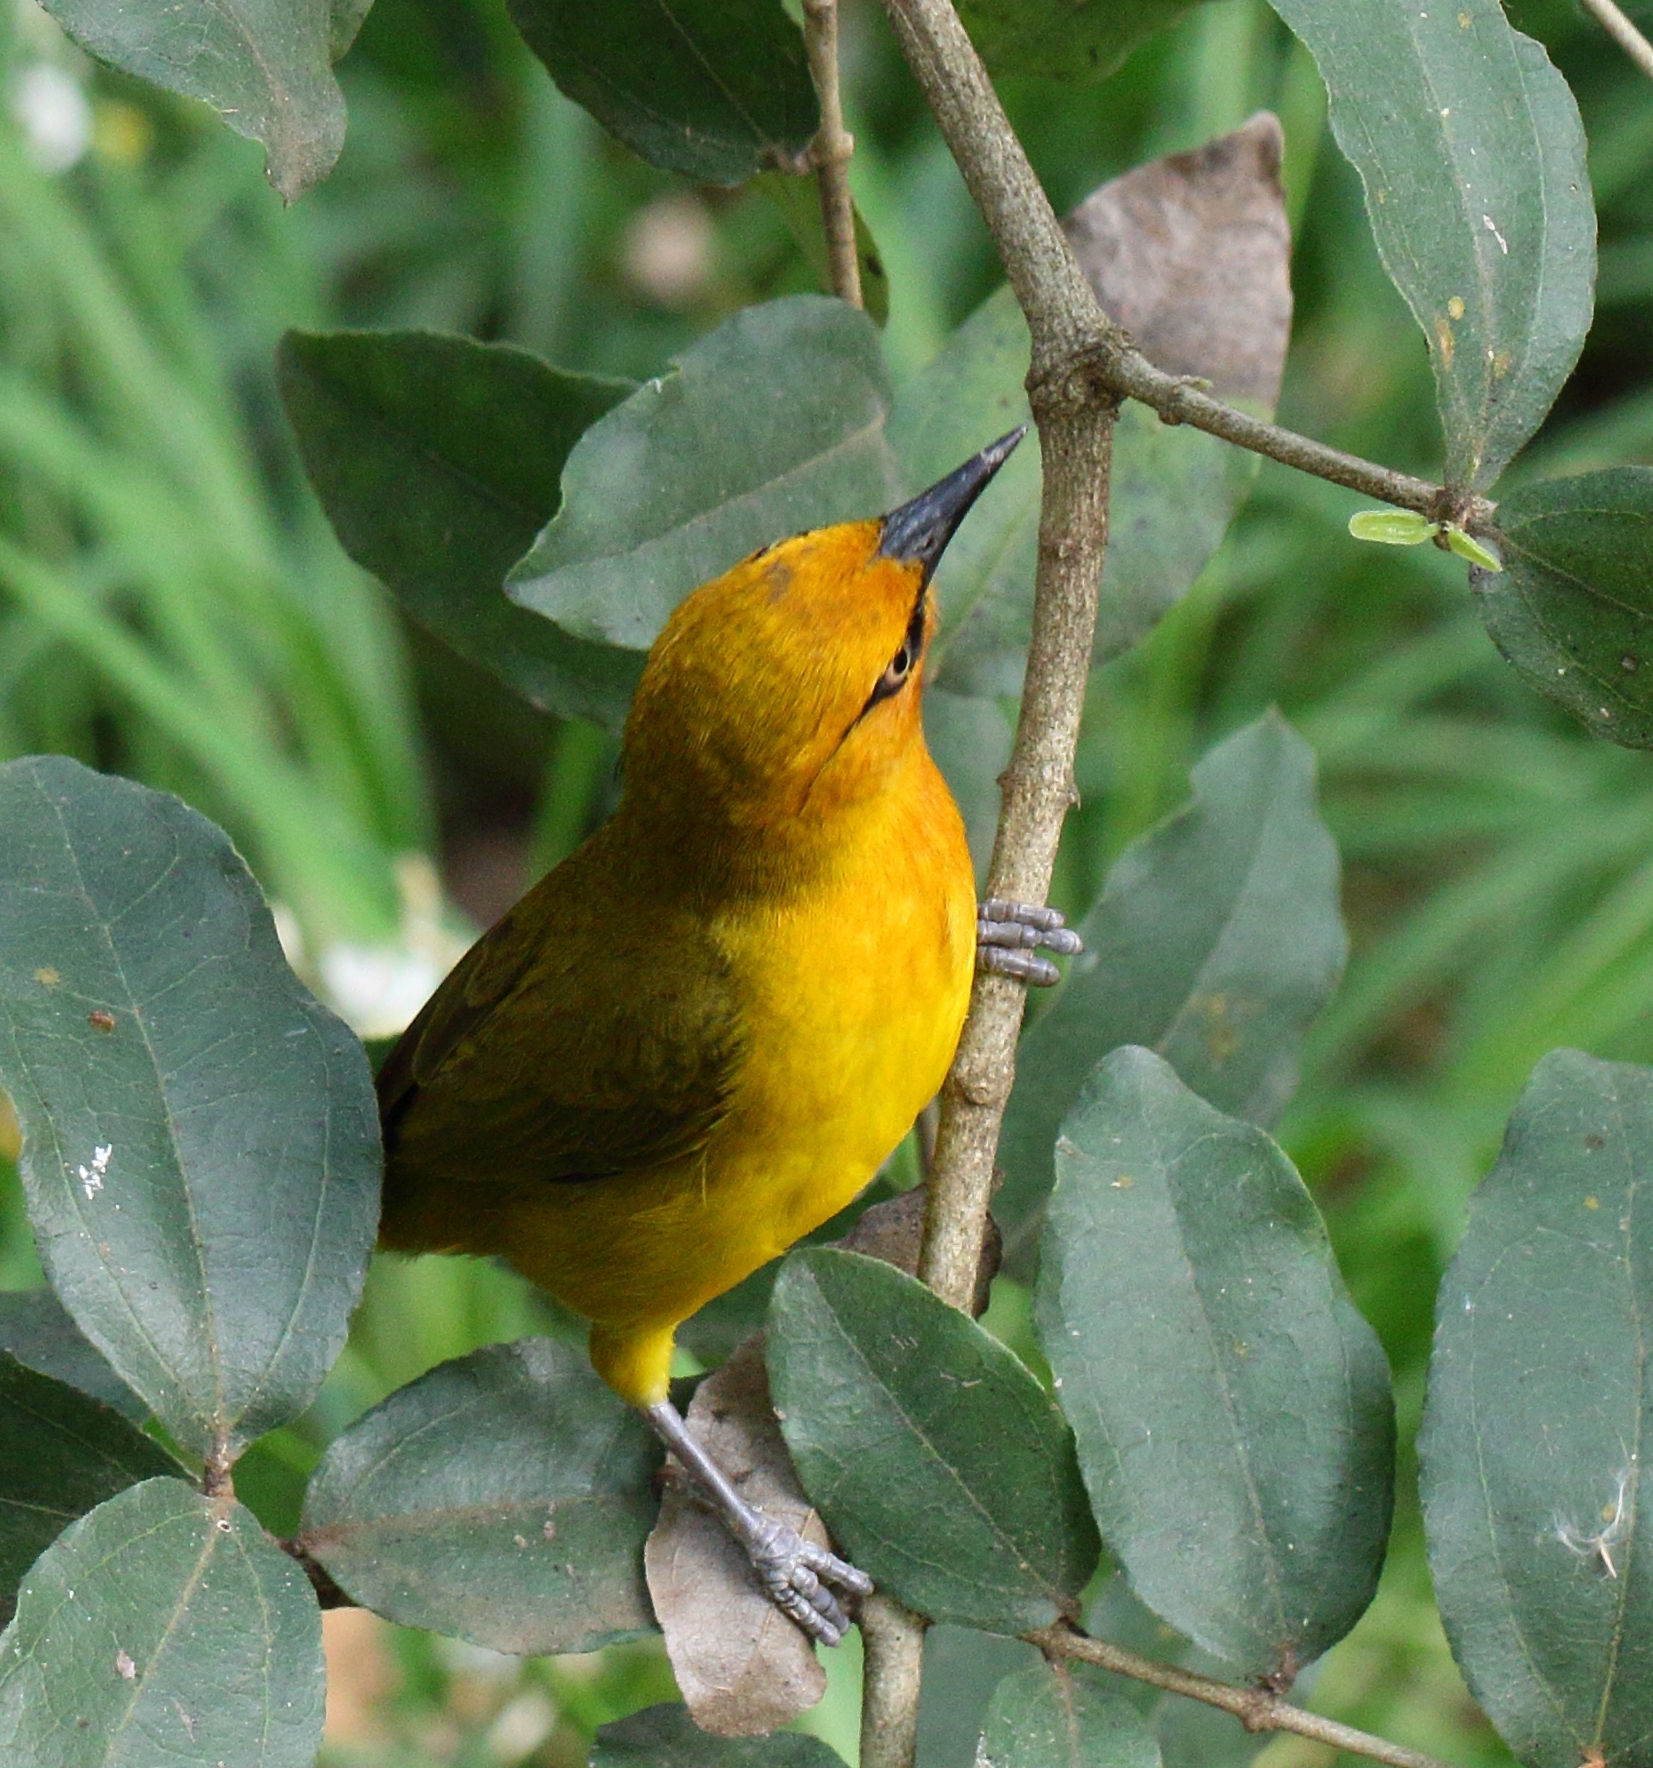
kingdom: Animalia
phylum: Chordata
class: Aves
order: Passeriformes
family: Ploceidae
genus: Ploceus
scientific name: Ploceus ocularis
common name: Spectacled weaver
